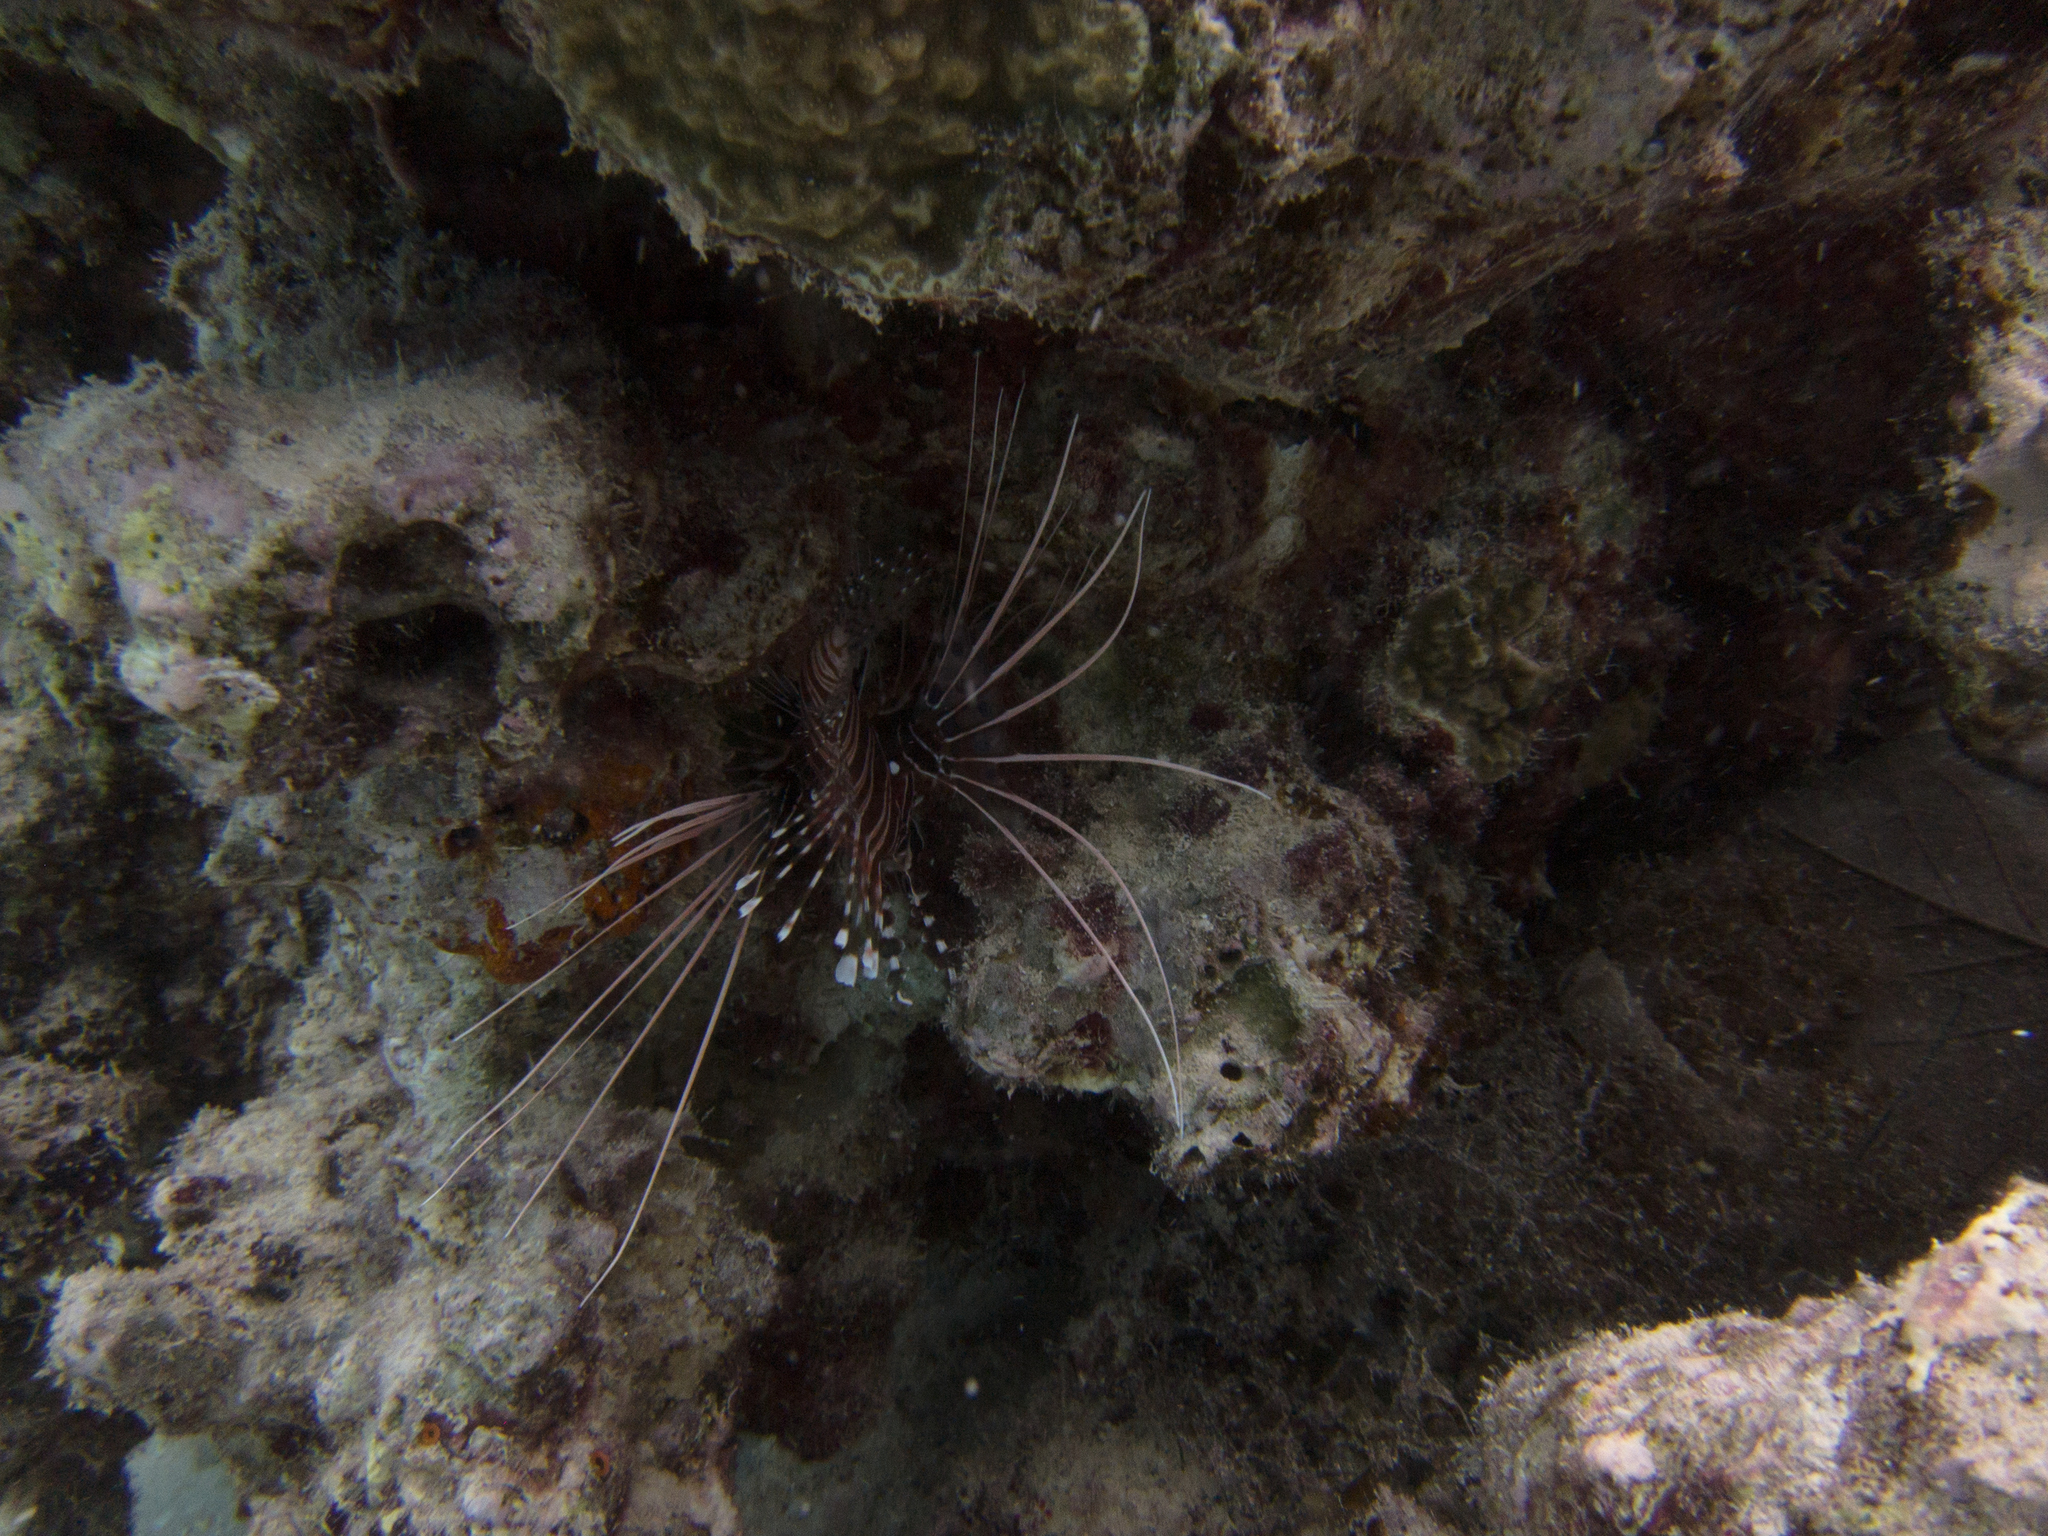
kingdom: Animalia
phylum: Chordata
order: Scorpaeniformes
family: Scorpaenidae
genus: Pterois
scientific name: Pterois antennata
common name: Spotfin lionfish
